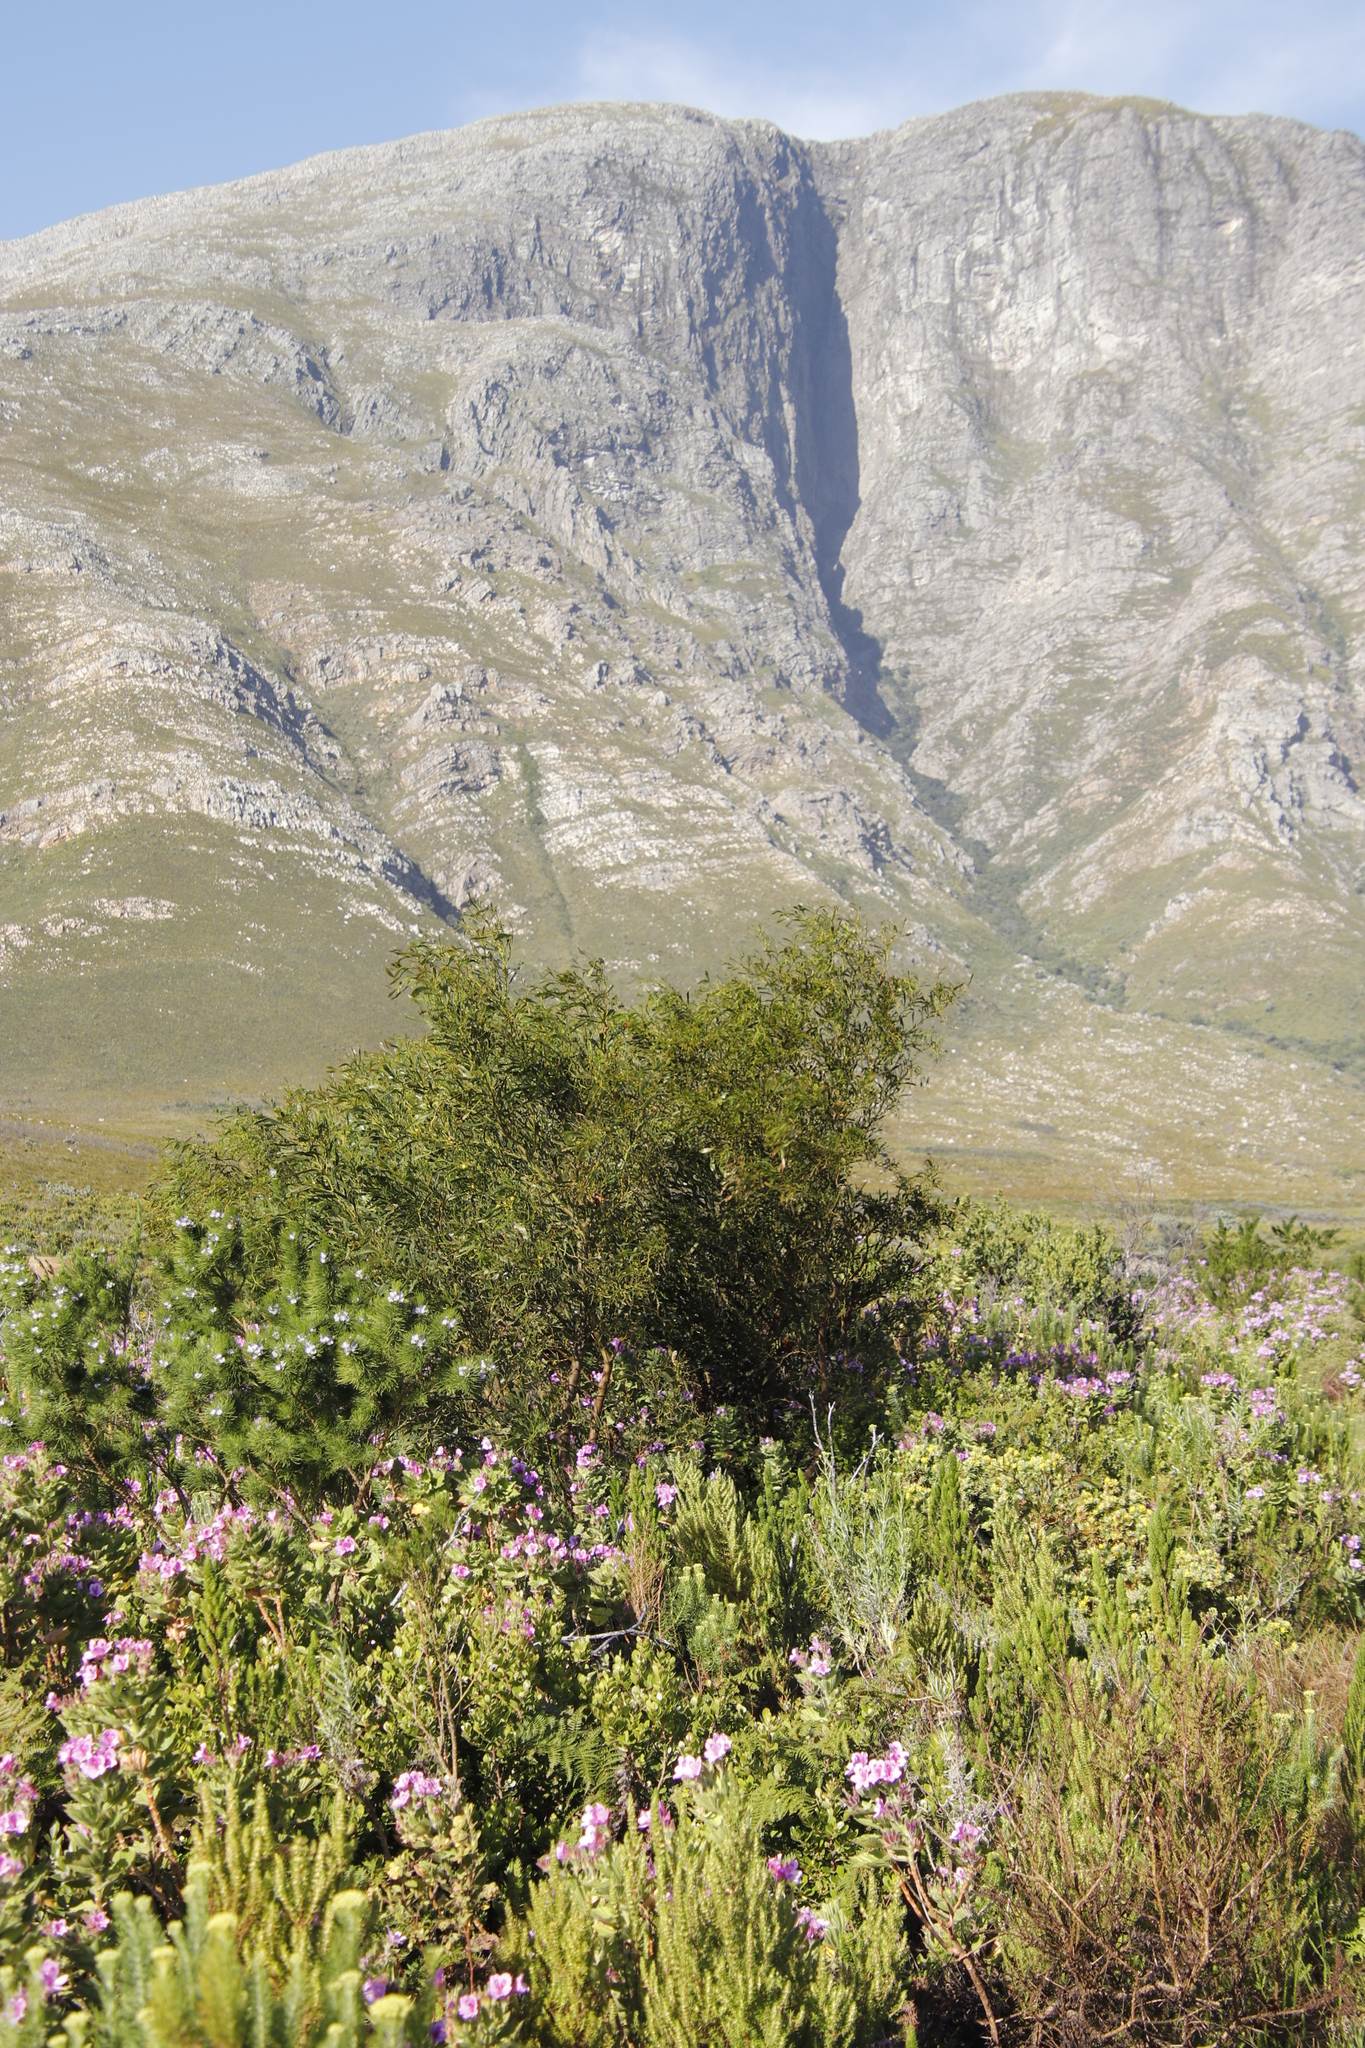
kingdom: Plantae
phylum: Tracheophyta
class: Magnoliopsida
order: Fabales
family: Fabaceae
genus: Acacia
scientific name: Acacia saligna
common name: Orange wattle
